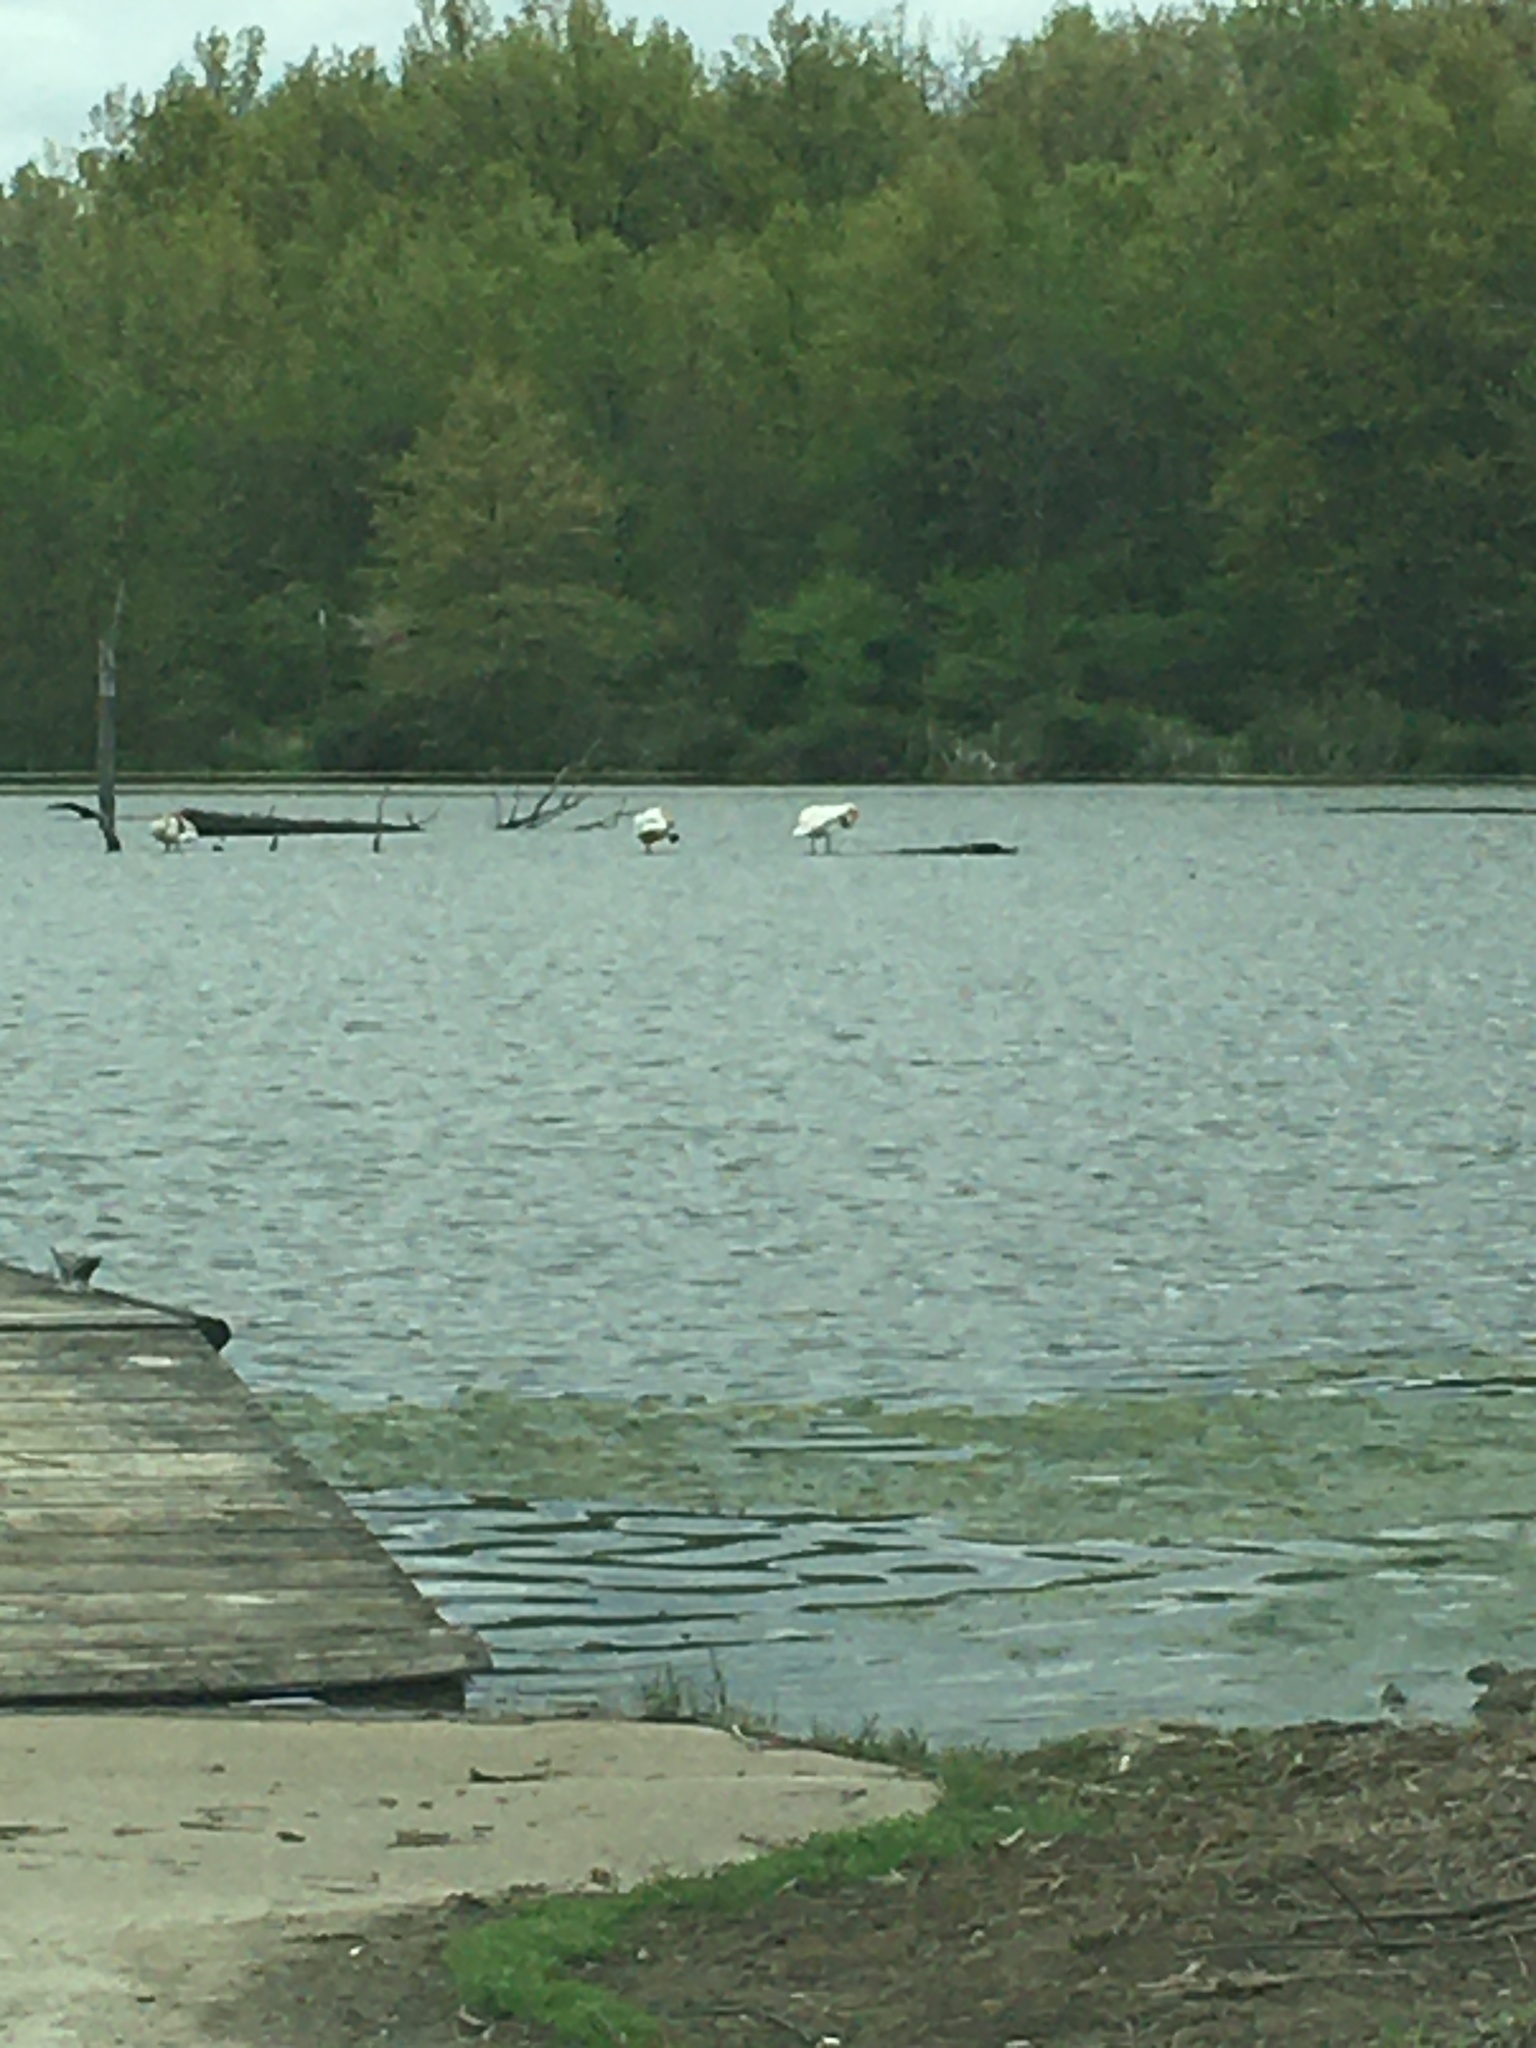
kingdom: Animalia
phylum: Chordata
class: Aves
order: Anseriformes
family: Anatidae
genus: Cygnus
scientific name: Cygnus buccinator
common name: Trumpeter swan
